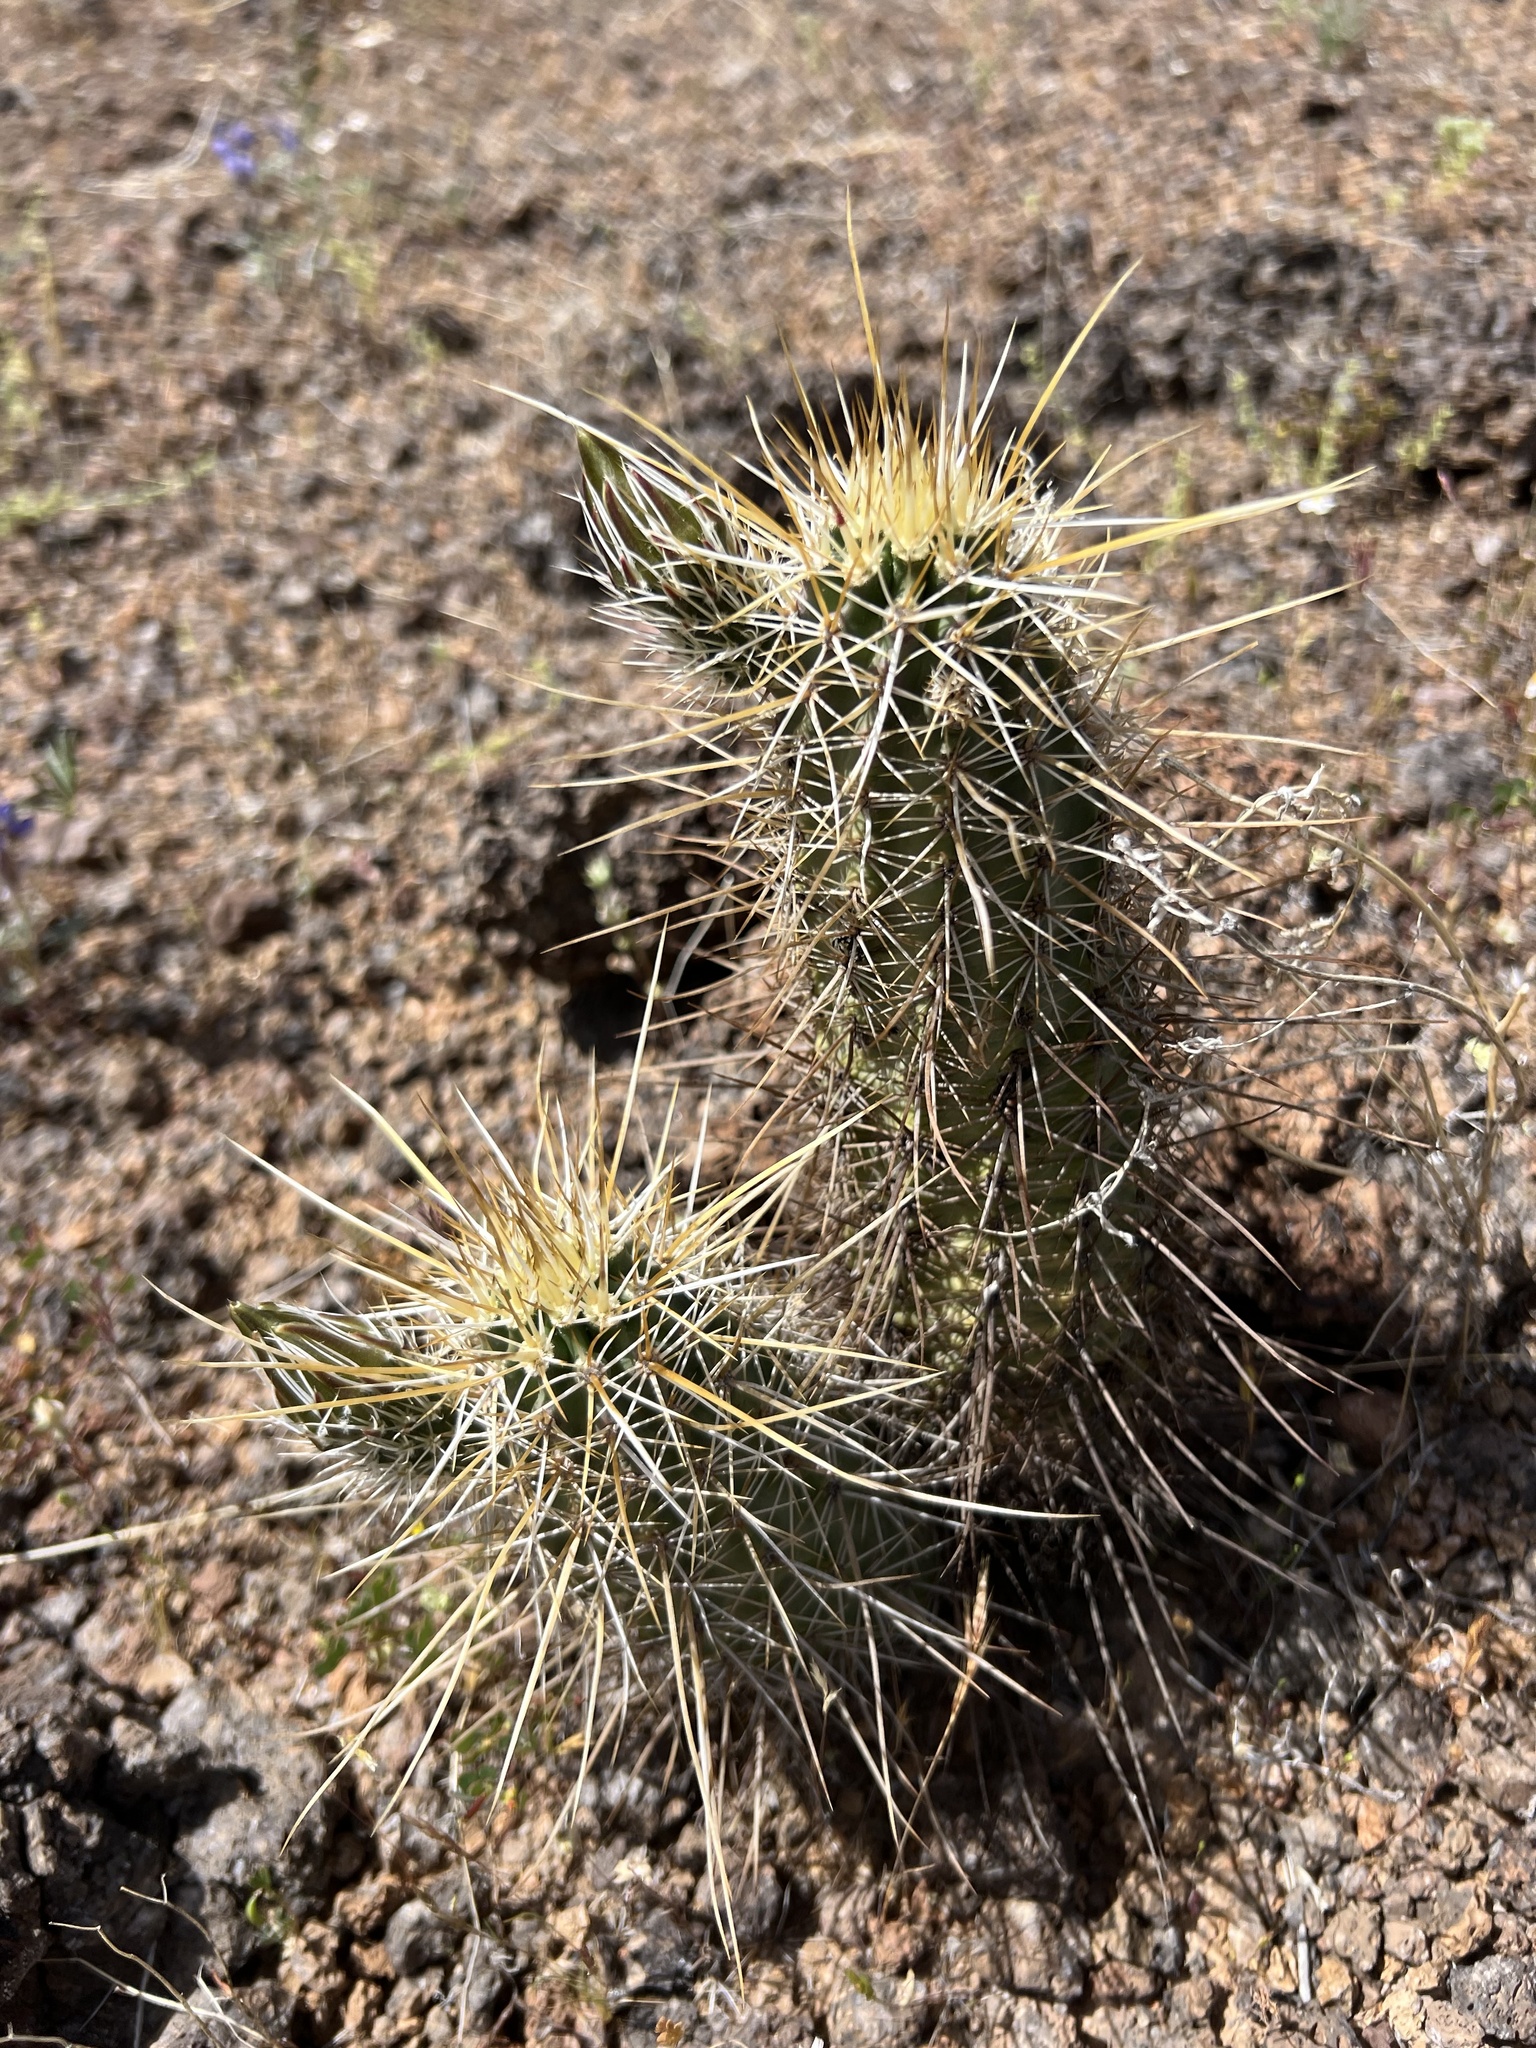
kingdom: Plantae
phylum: Tracheophyta
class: Magnoliopsida
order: Caryophyllales
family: Cactaceae
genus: Echinocereus
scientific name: Echinocereus engelmannii
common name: Engelmann's hedgehog cactus
